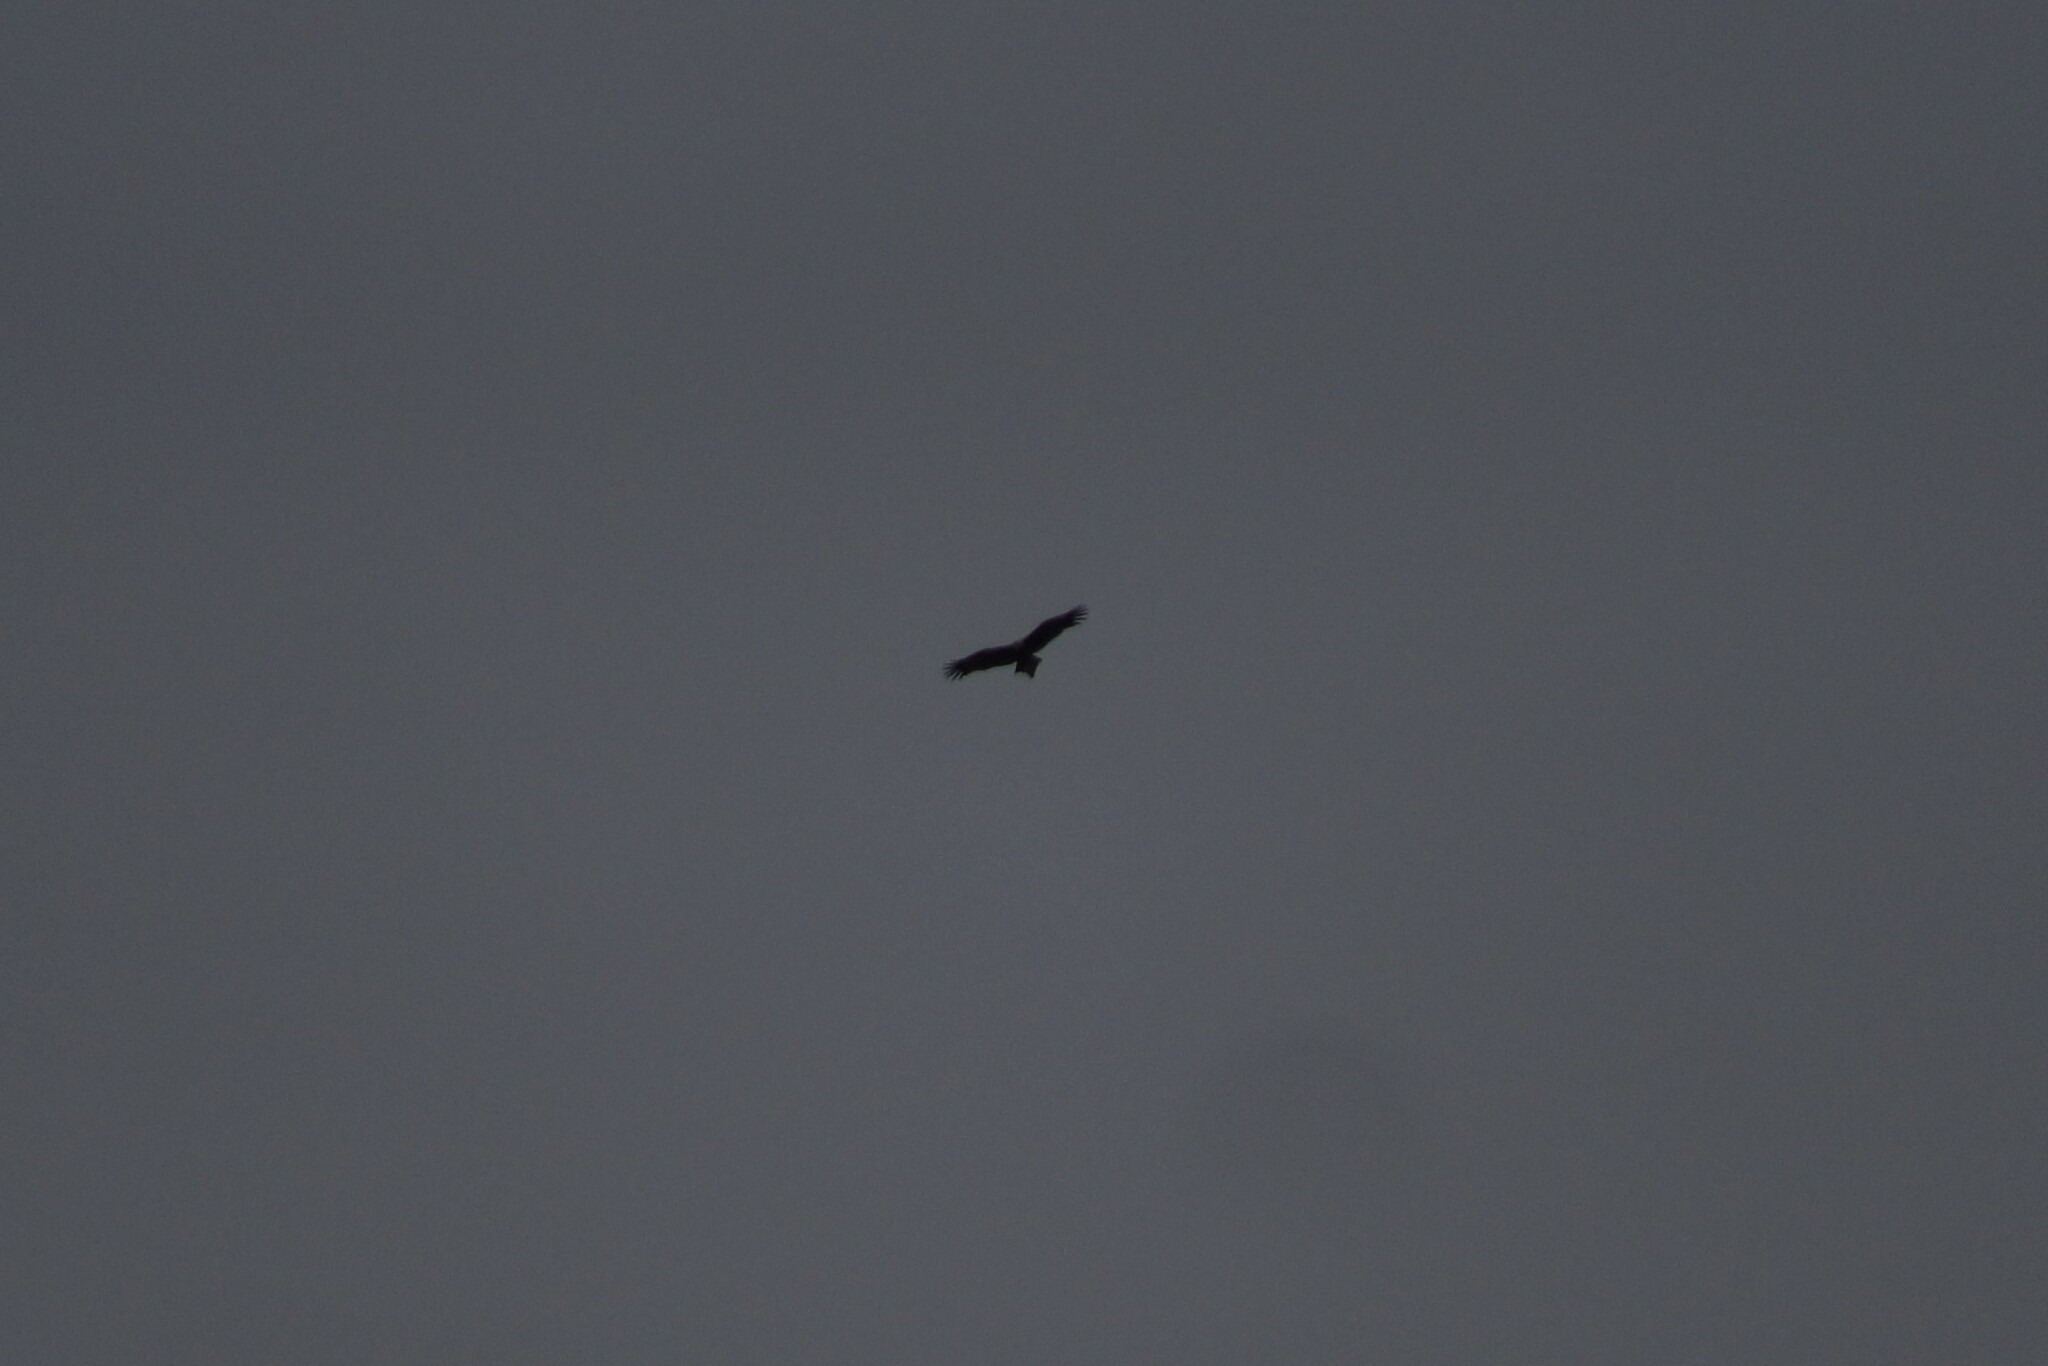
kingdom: Animalia
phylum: Chordata
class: Aves
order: Accipitriformes
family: Accipitridae
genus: Aquila
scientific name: Aquila audax
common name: Wedge-tailed eagle
